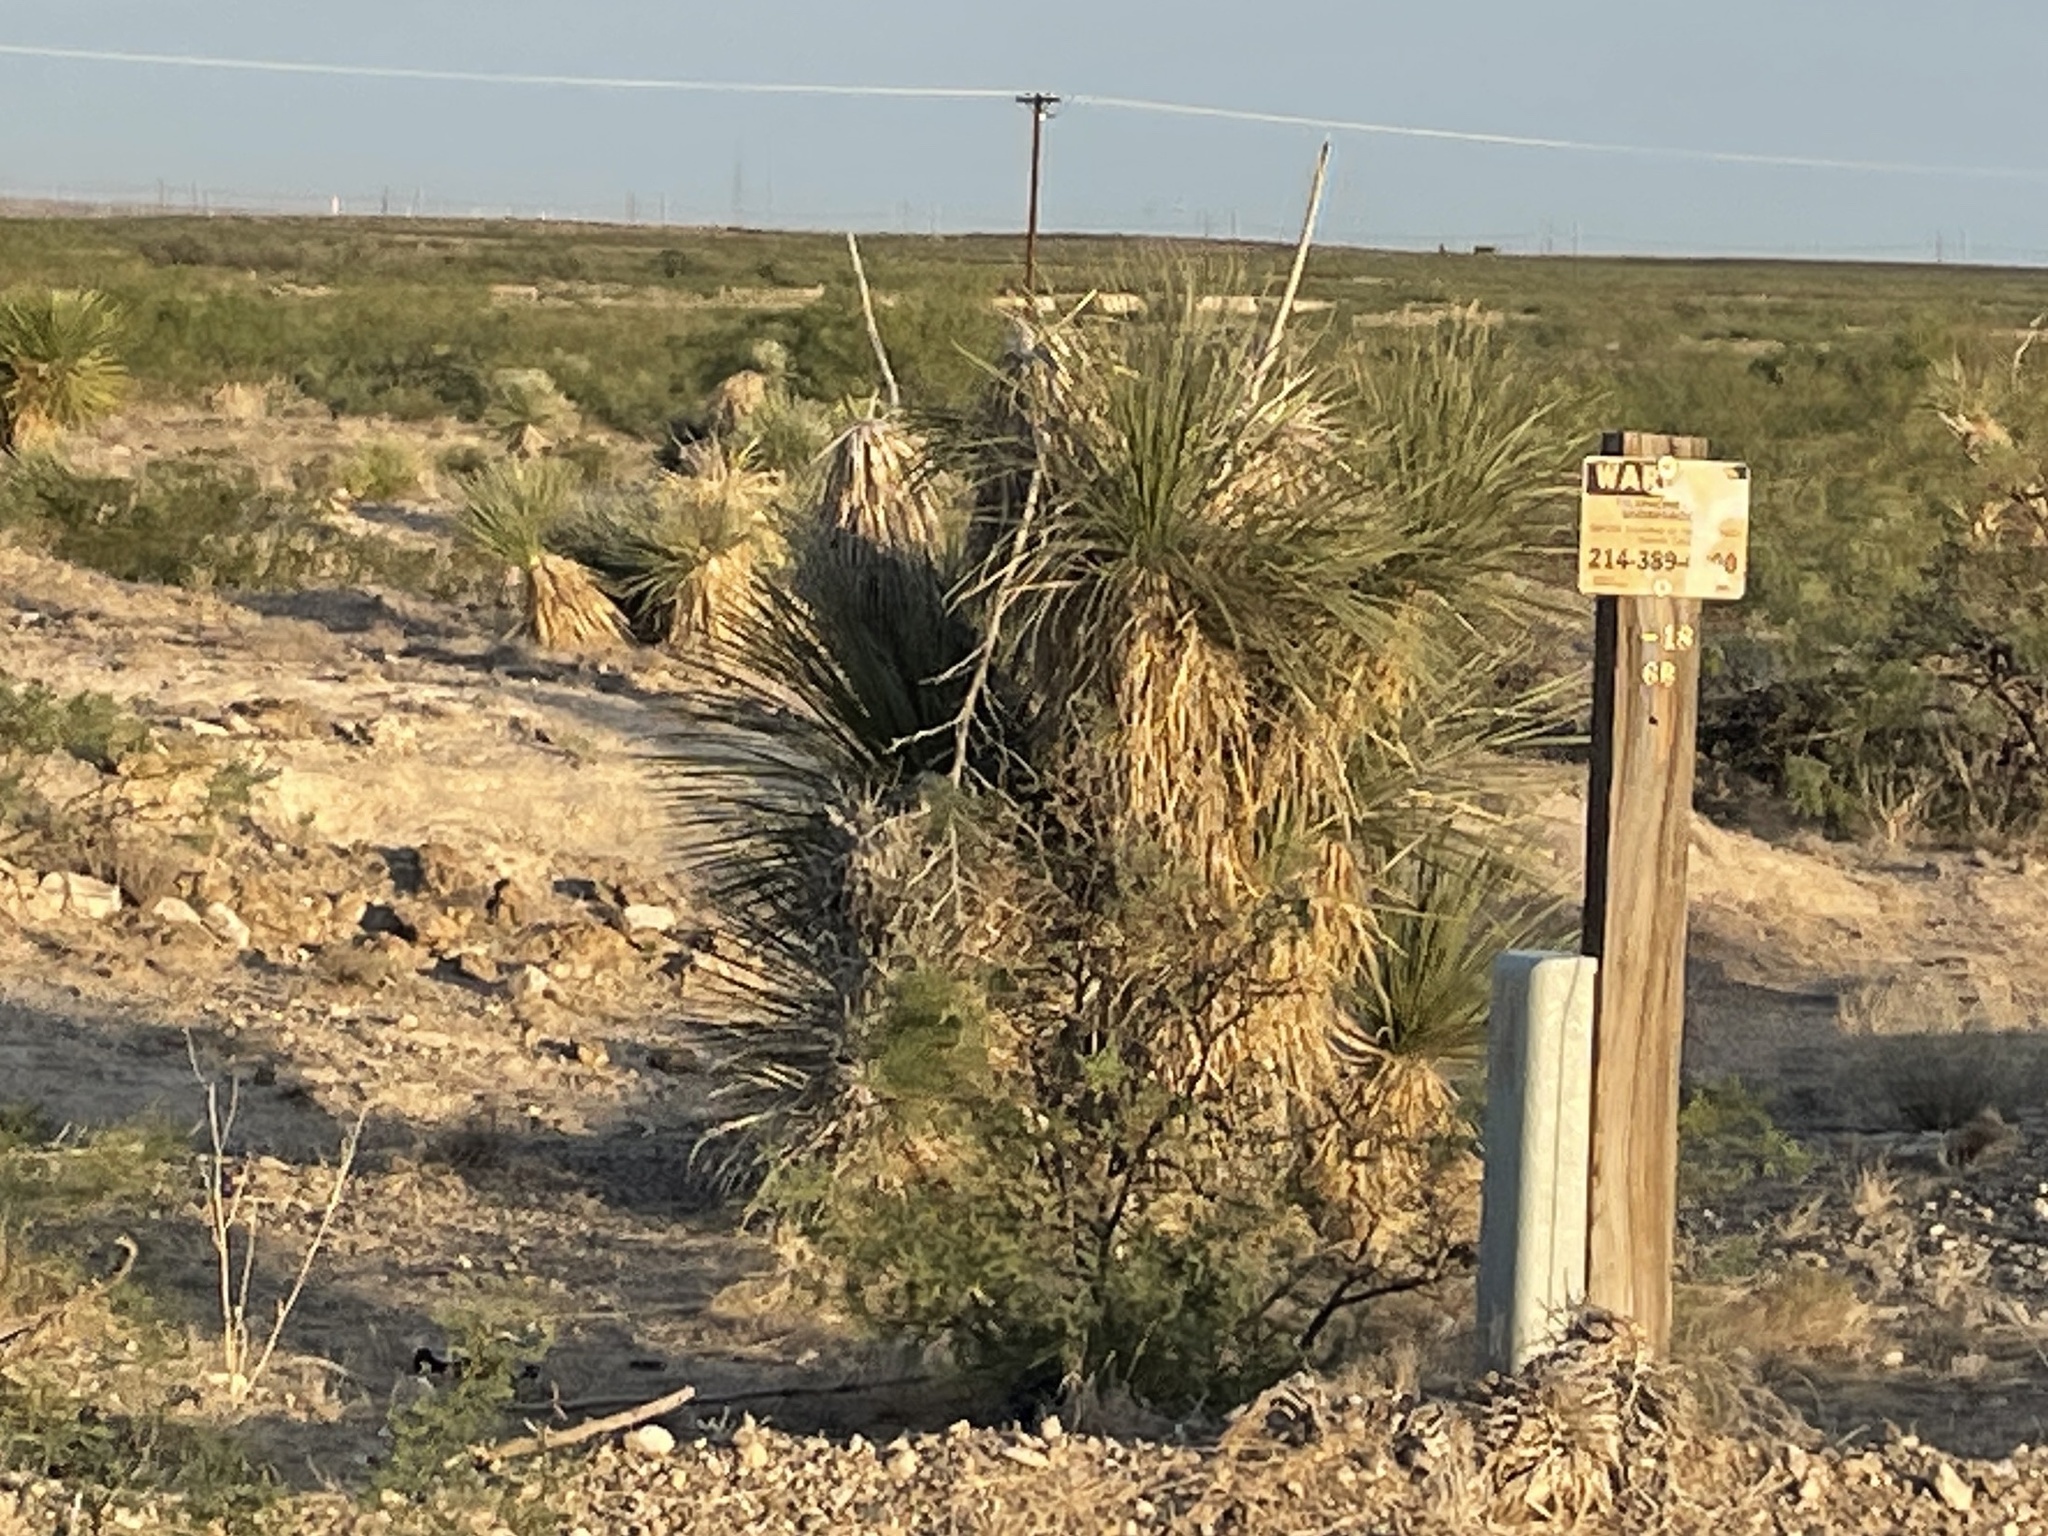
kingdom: Plantae
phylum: Tracheophyta
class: Liliopsida
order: Asparagales
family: Asparagaceae
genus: Yucca
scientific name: Yucca elata
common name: Palmella
